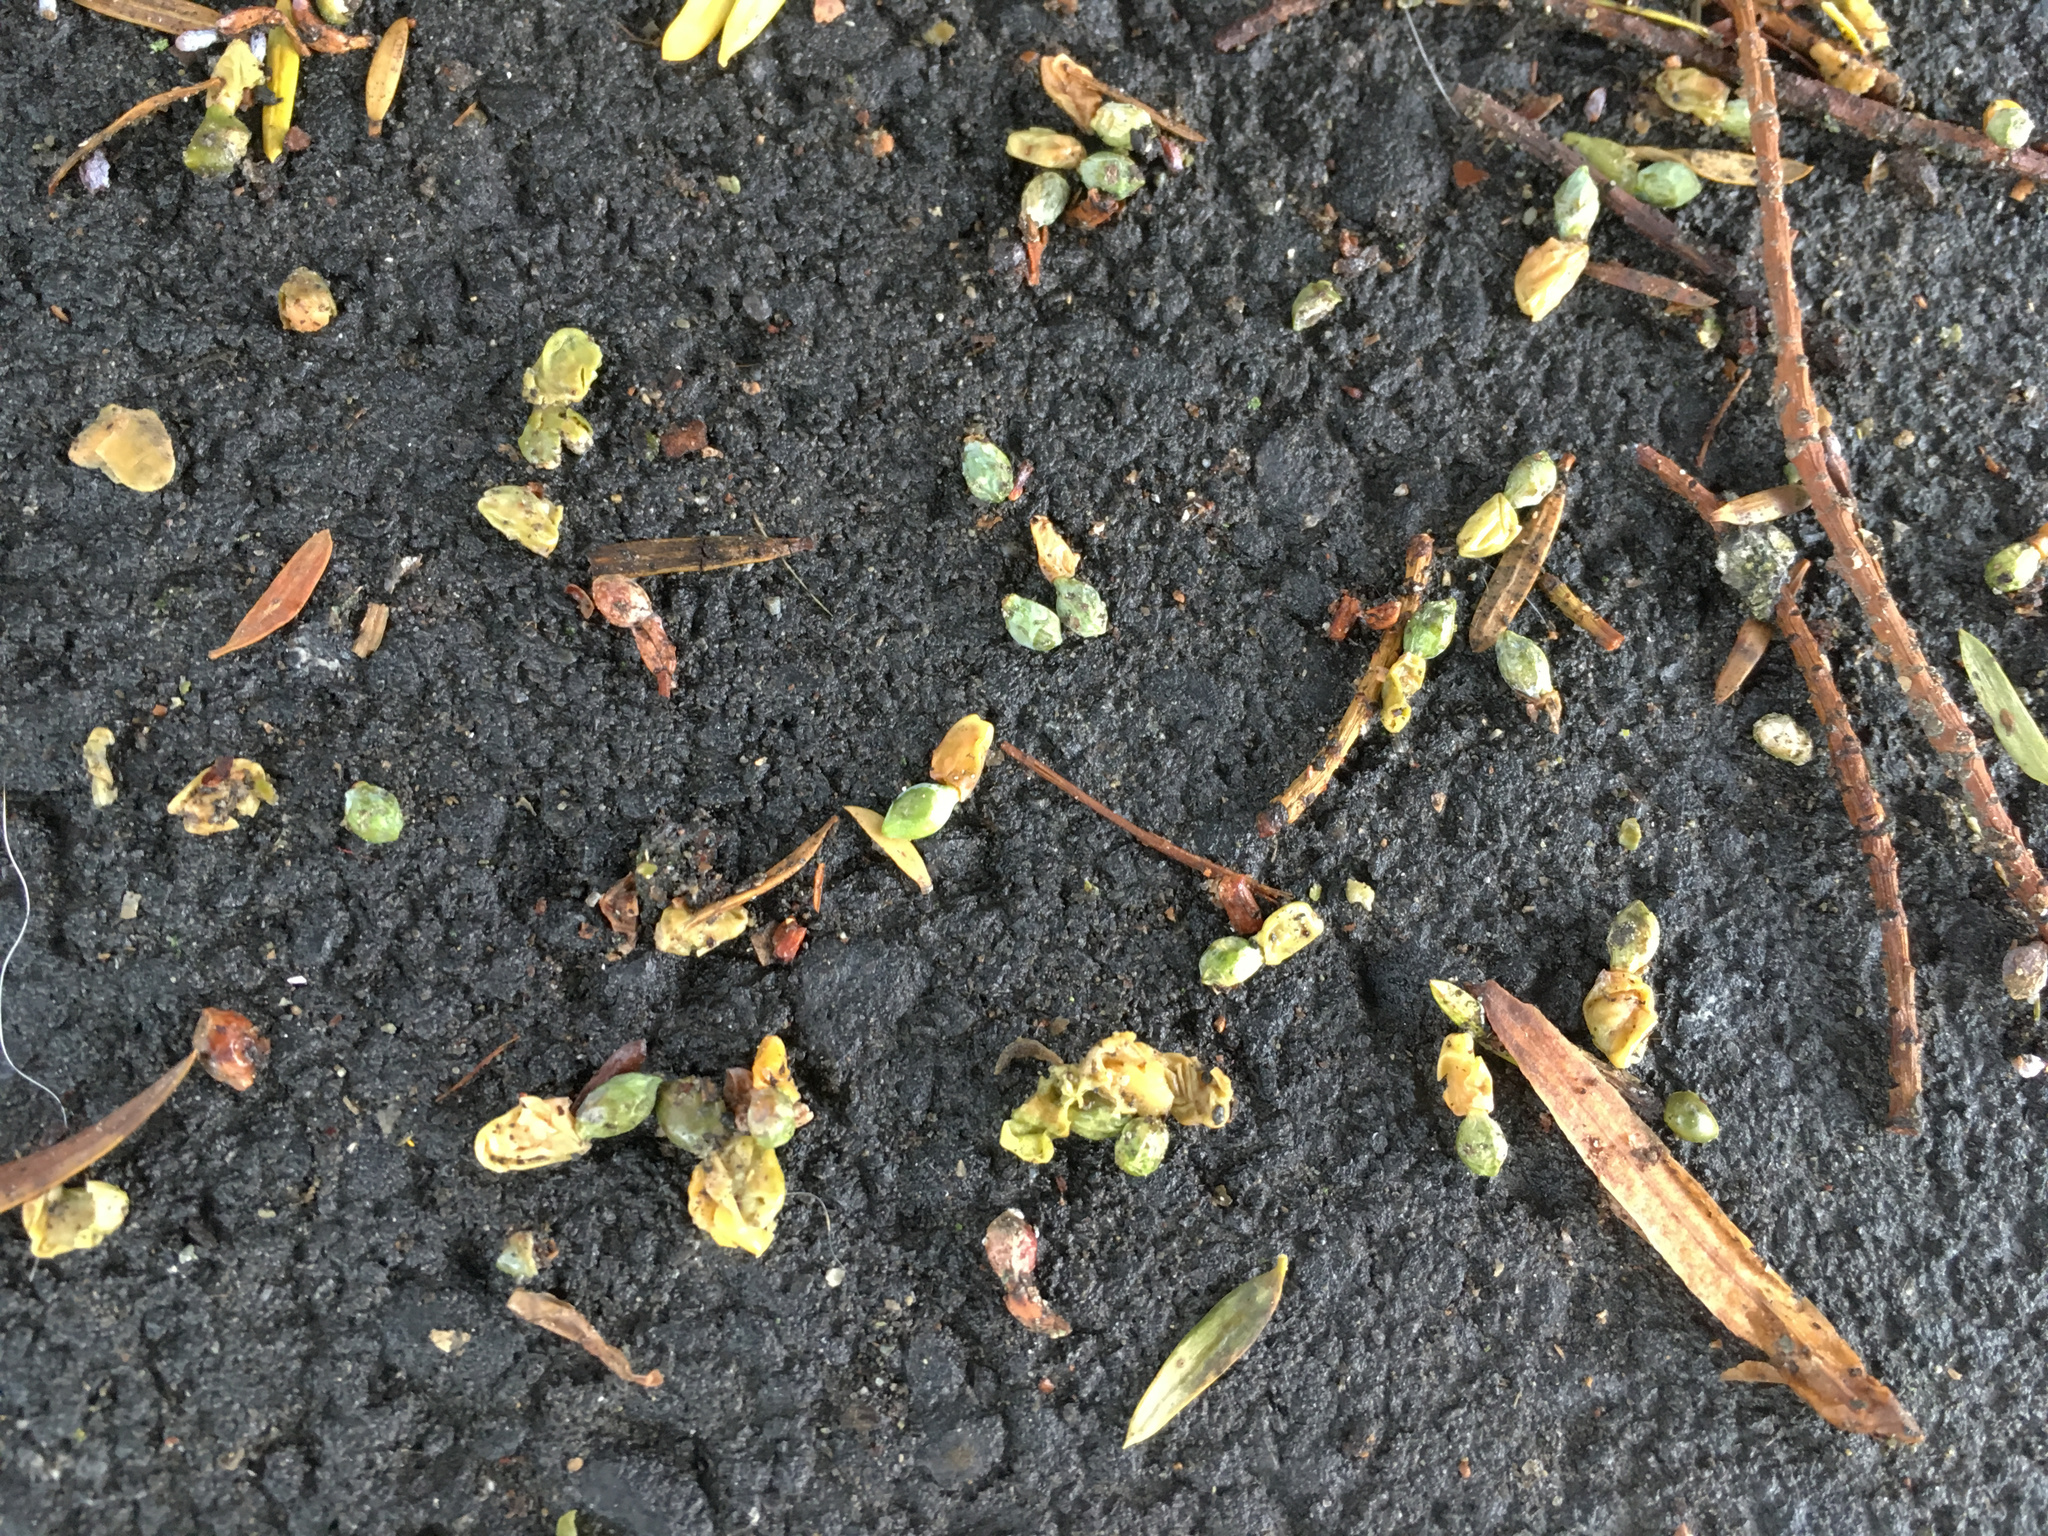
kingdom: Plantae
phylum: Tracheophyta
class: Pinopsida
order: Pinales
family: Podocarpaceae
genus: Podocarpus
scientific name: Podocarpus totara
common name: Totara
